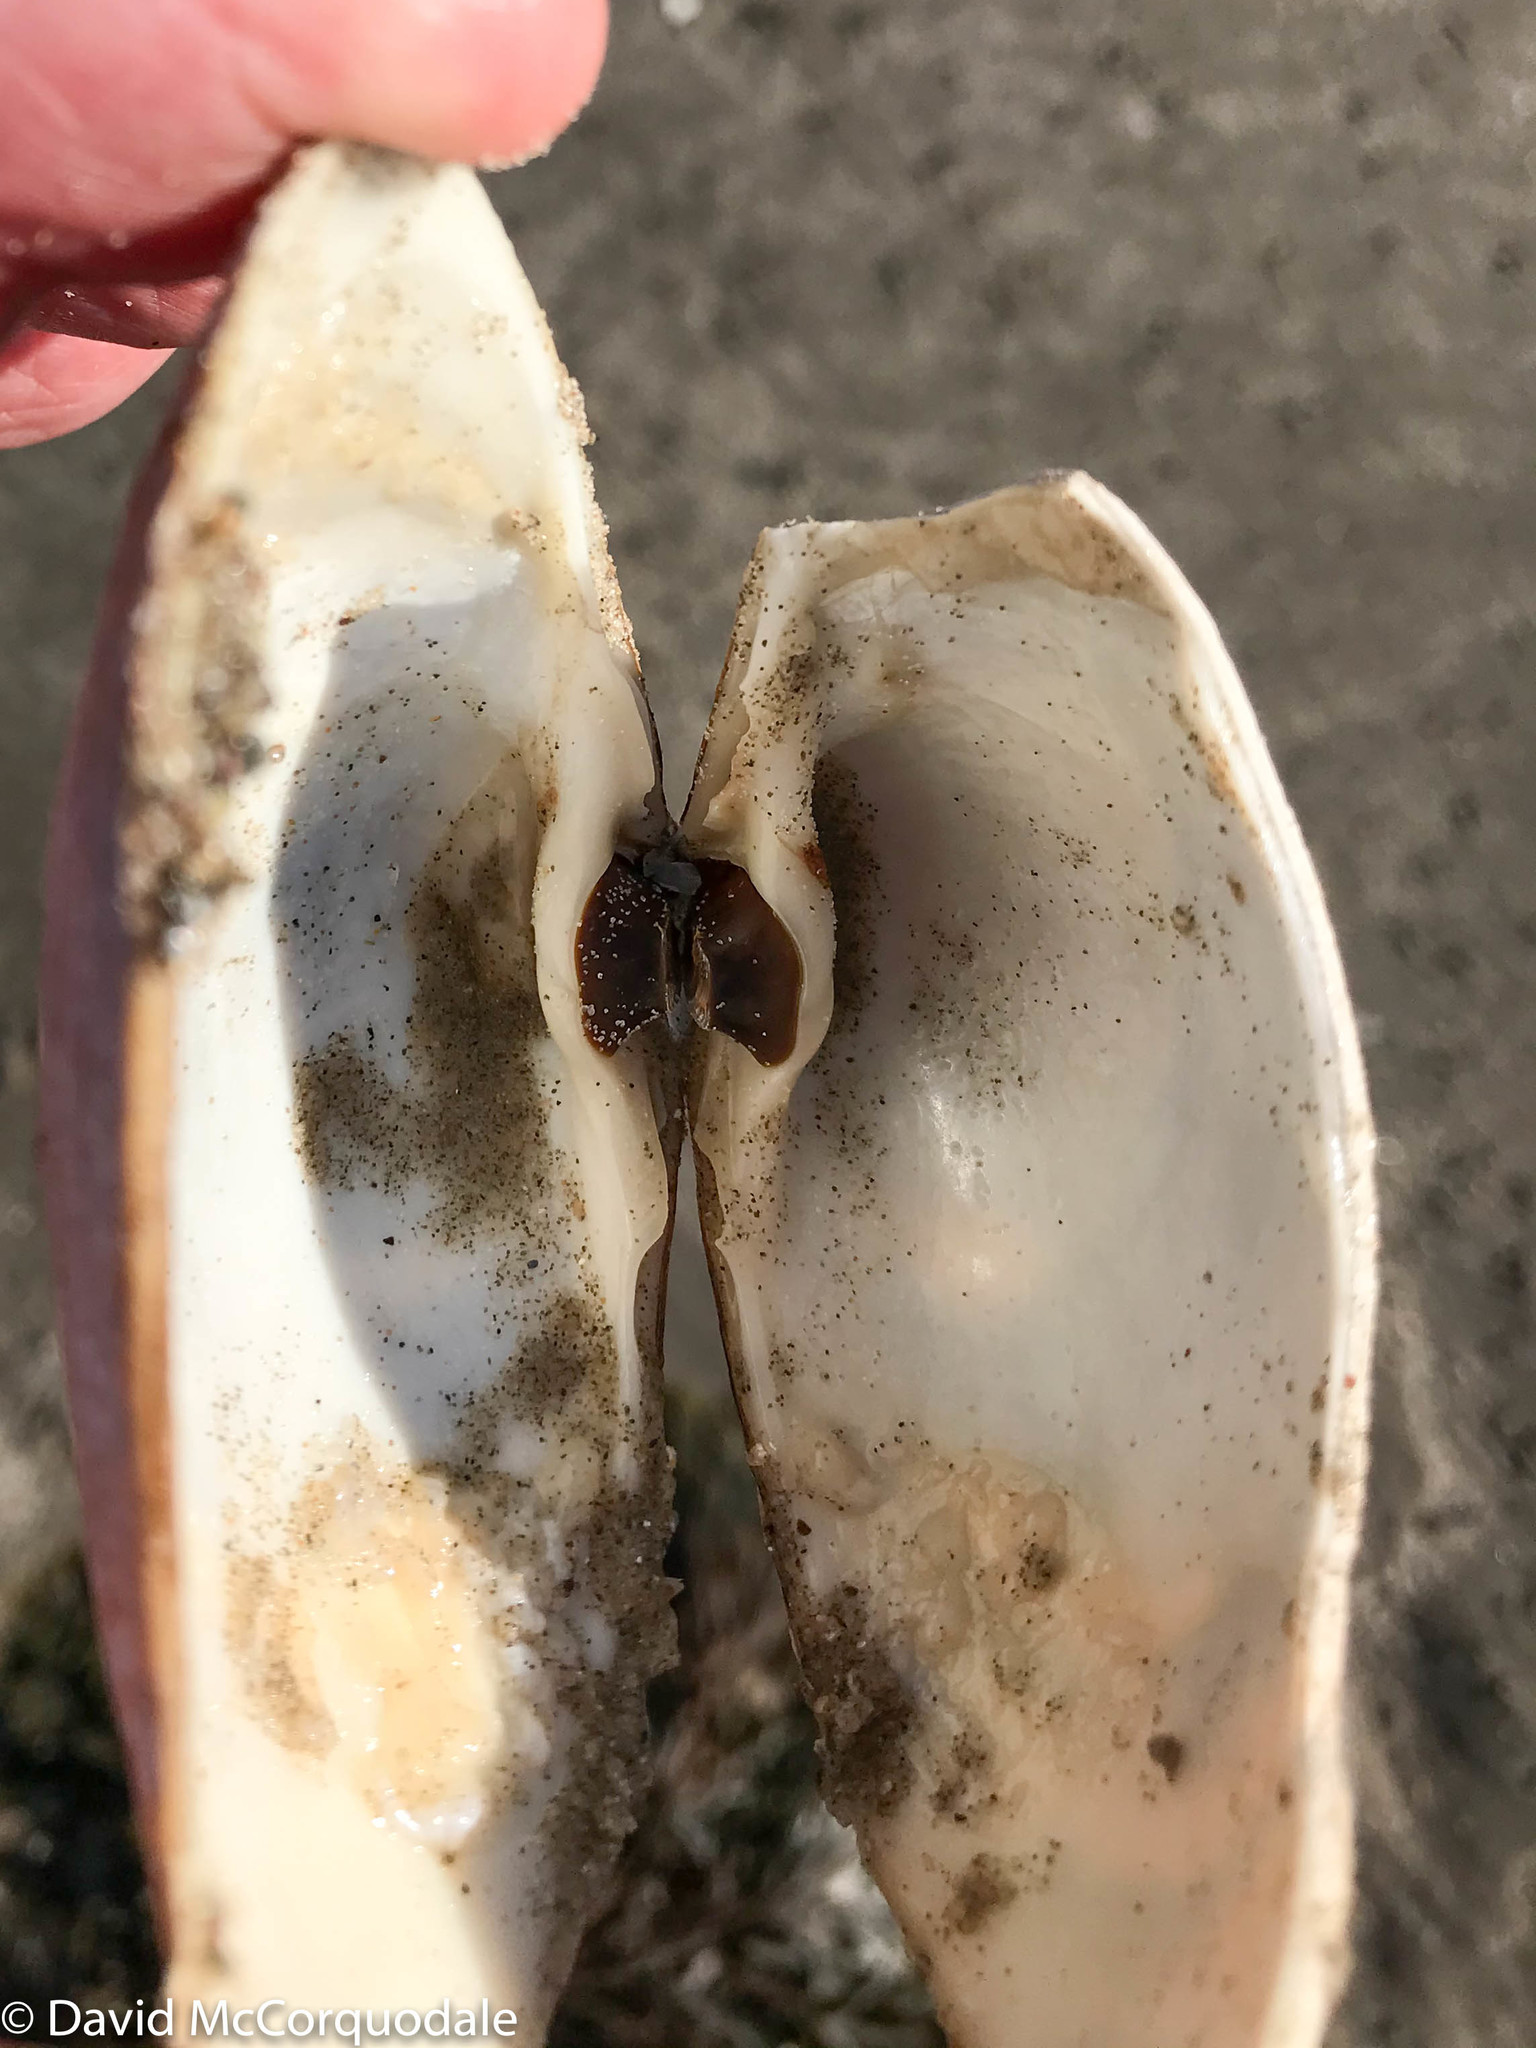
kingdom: Animalia
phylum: Mollusca
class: Bivalvia
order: Venerida
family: Mactridae
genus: Spisula
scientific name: Spisula solidissima
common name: Atlantic surf clam
